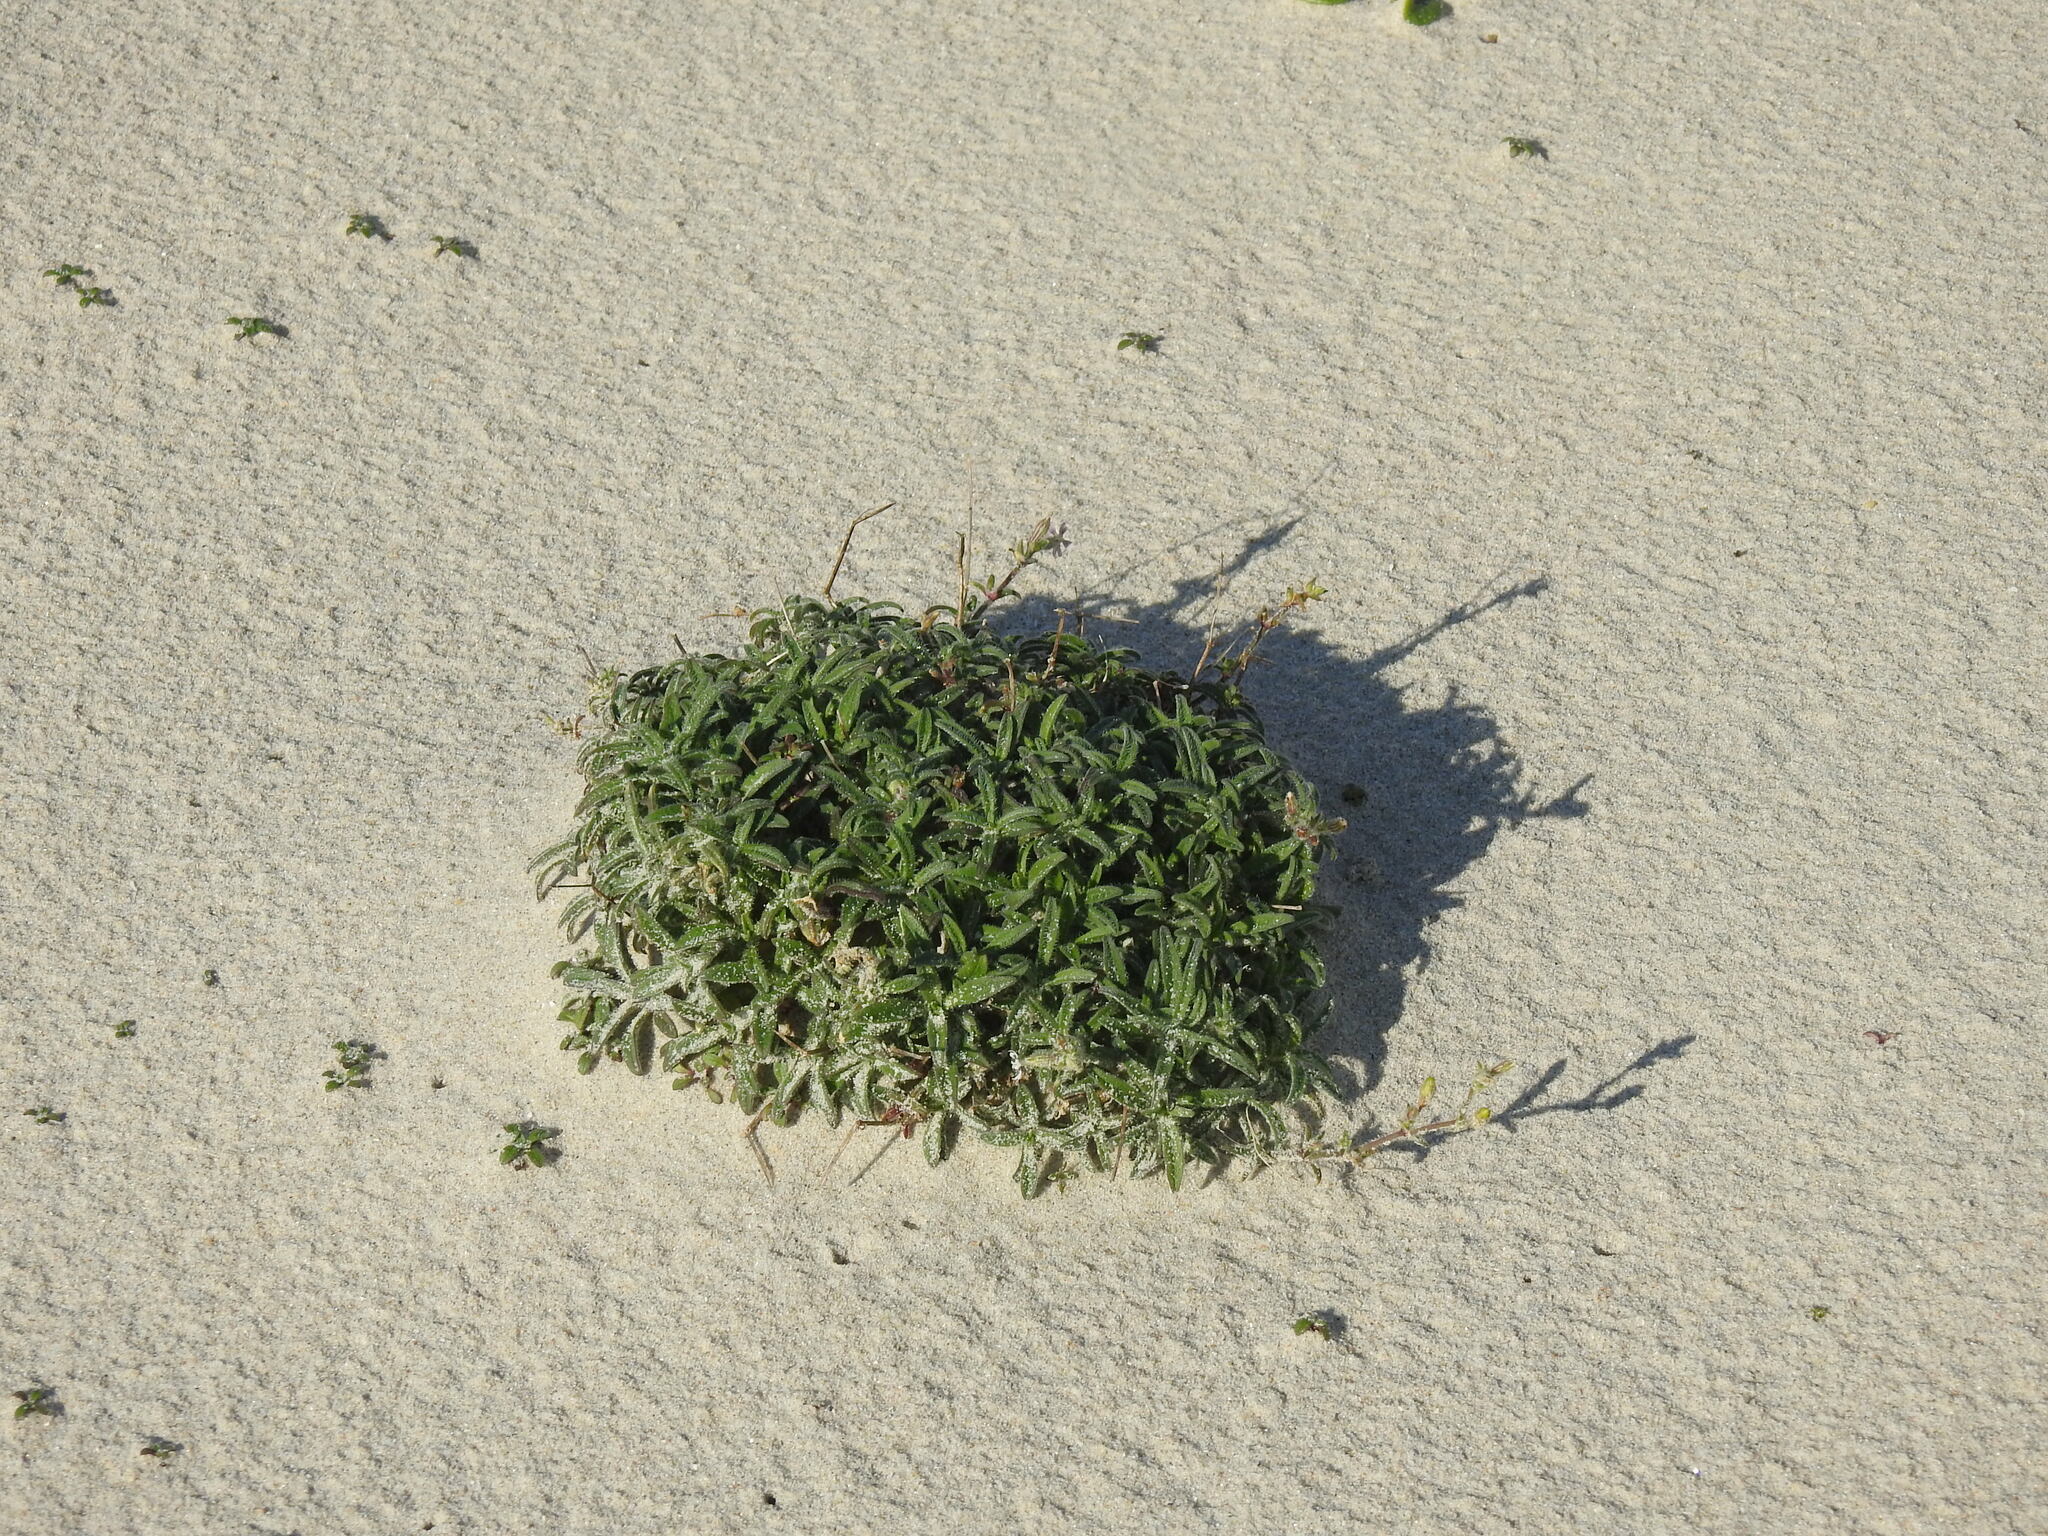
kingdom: Plantae
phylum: Tracheophyta
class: Magnoliopsida
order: Caryophyllales
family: Caryophyllaceae
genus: Silene
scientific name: Silene nicaeensis
